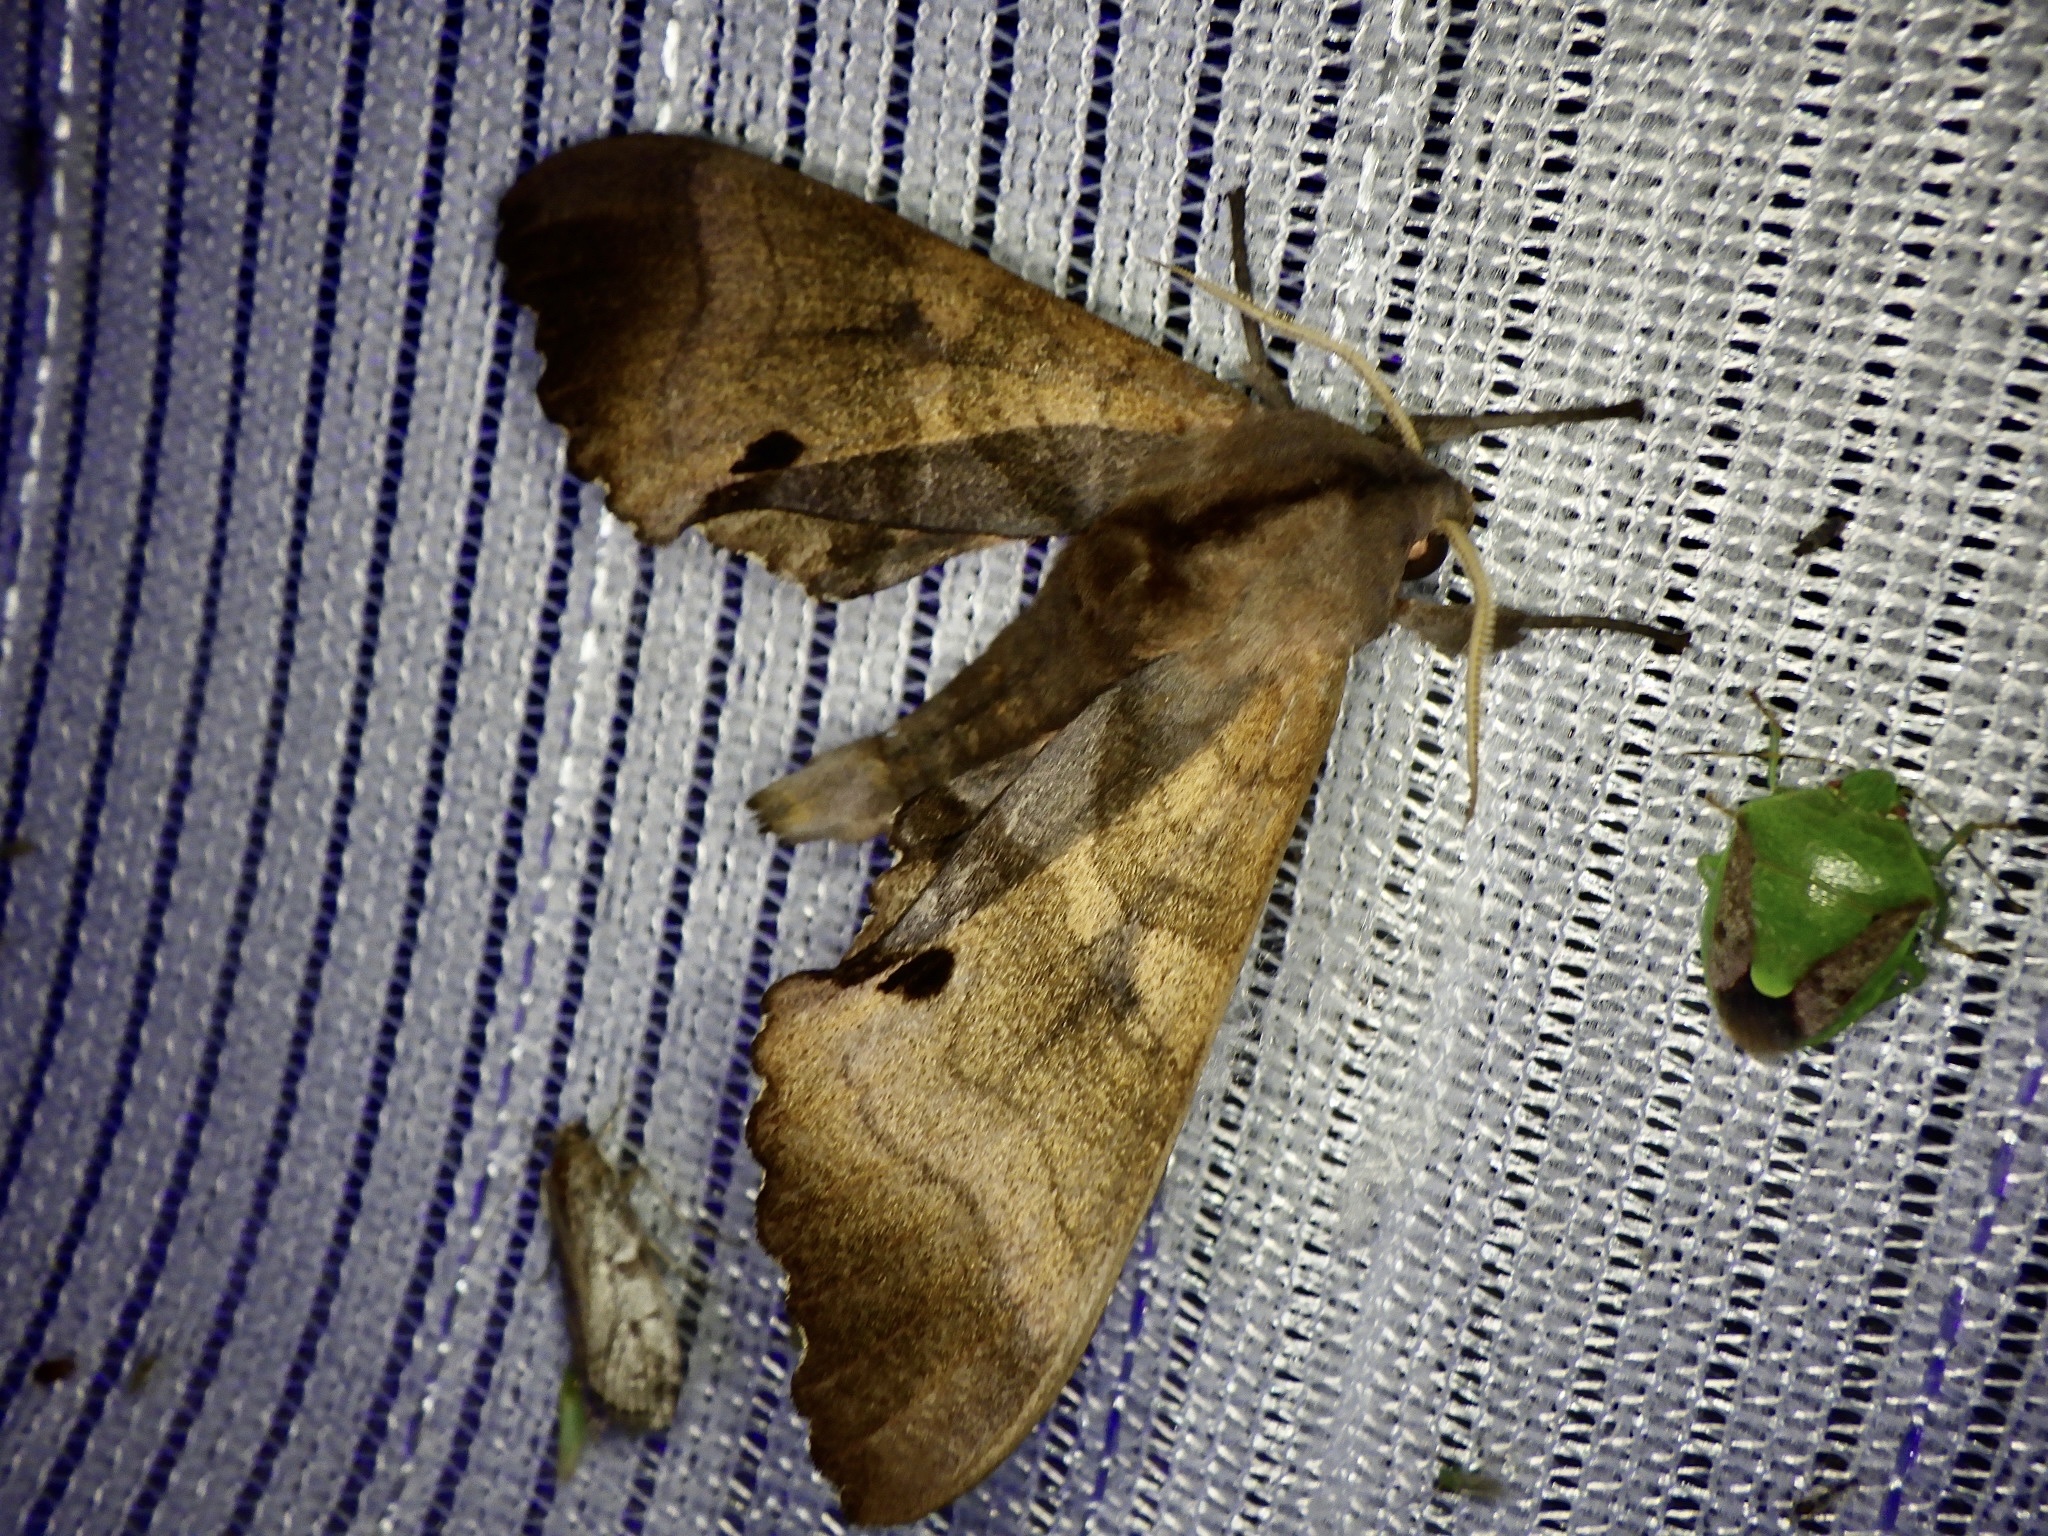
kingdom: Animalia
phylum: Arthropoda
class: Insecta
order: Lepidoptera
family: Sphingidae
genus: Marumba
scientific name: Marumba echephron
